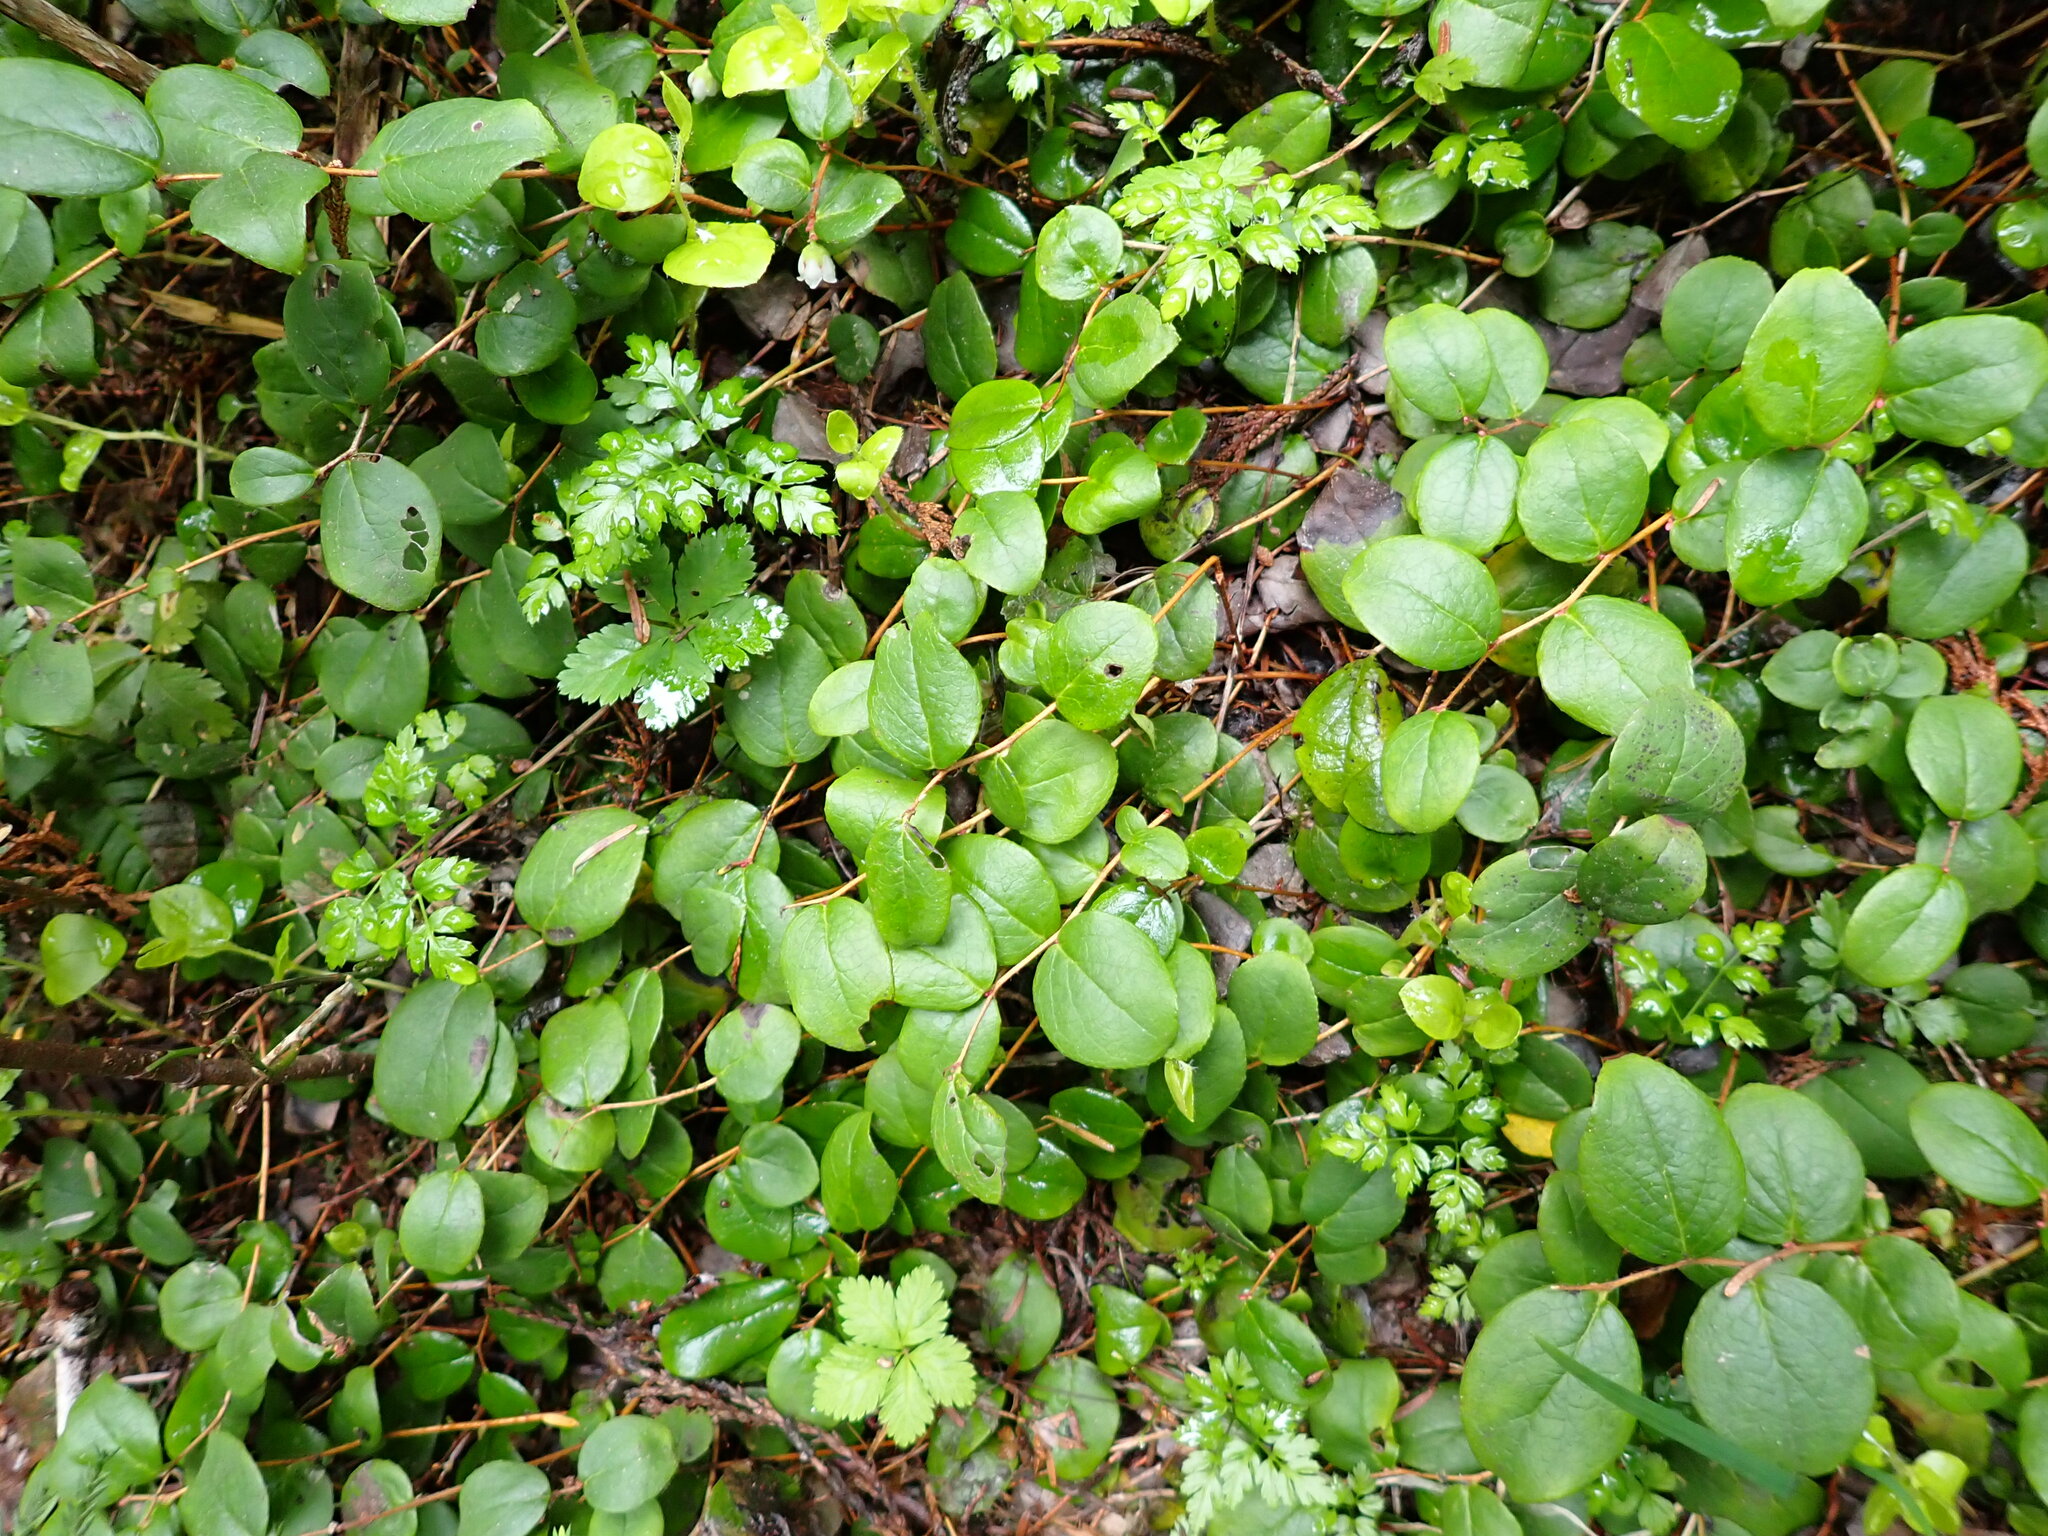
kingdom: Plantae
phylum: Tracheophyta
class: Magnoliopsida
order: Ericales
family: Ericaceae
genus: Gaultheria
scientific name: Gaultheria ovatifolia
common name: Oregon wintergreen
